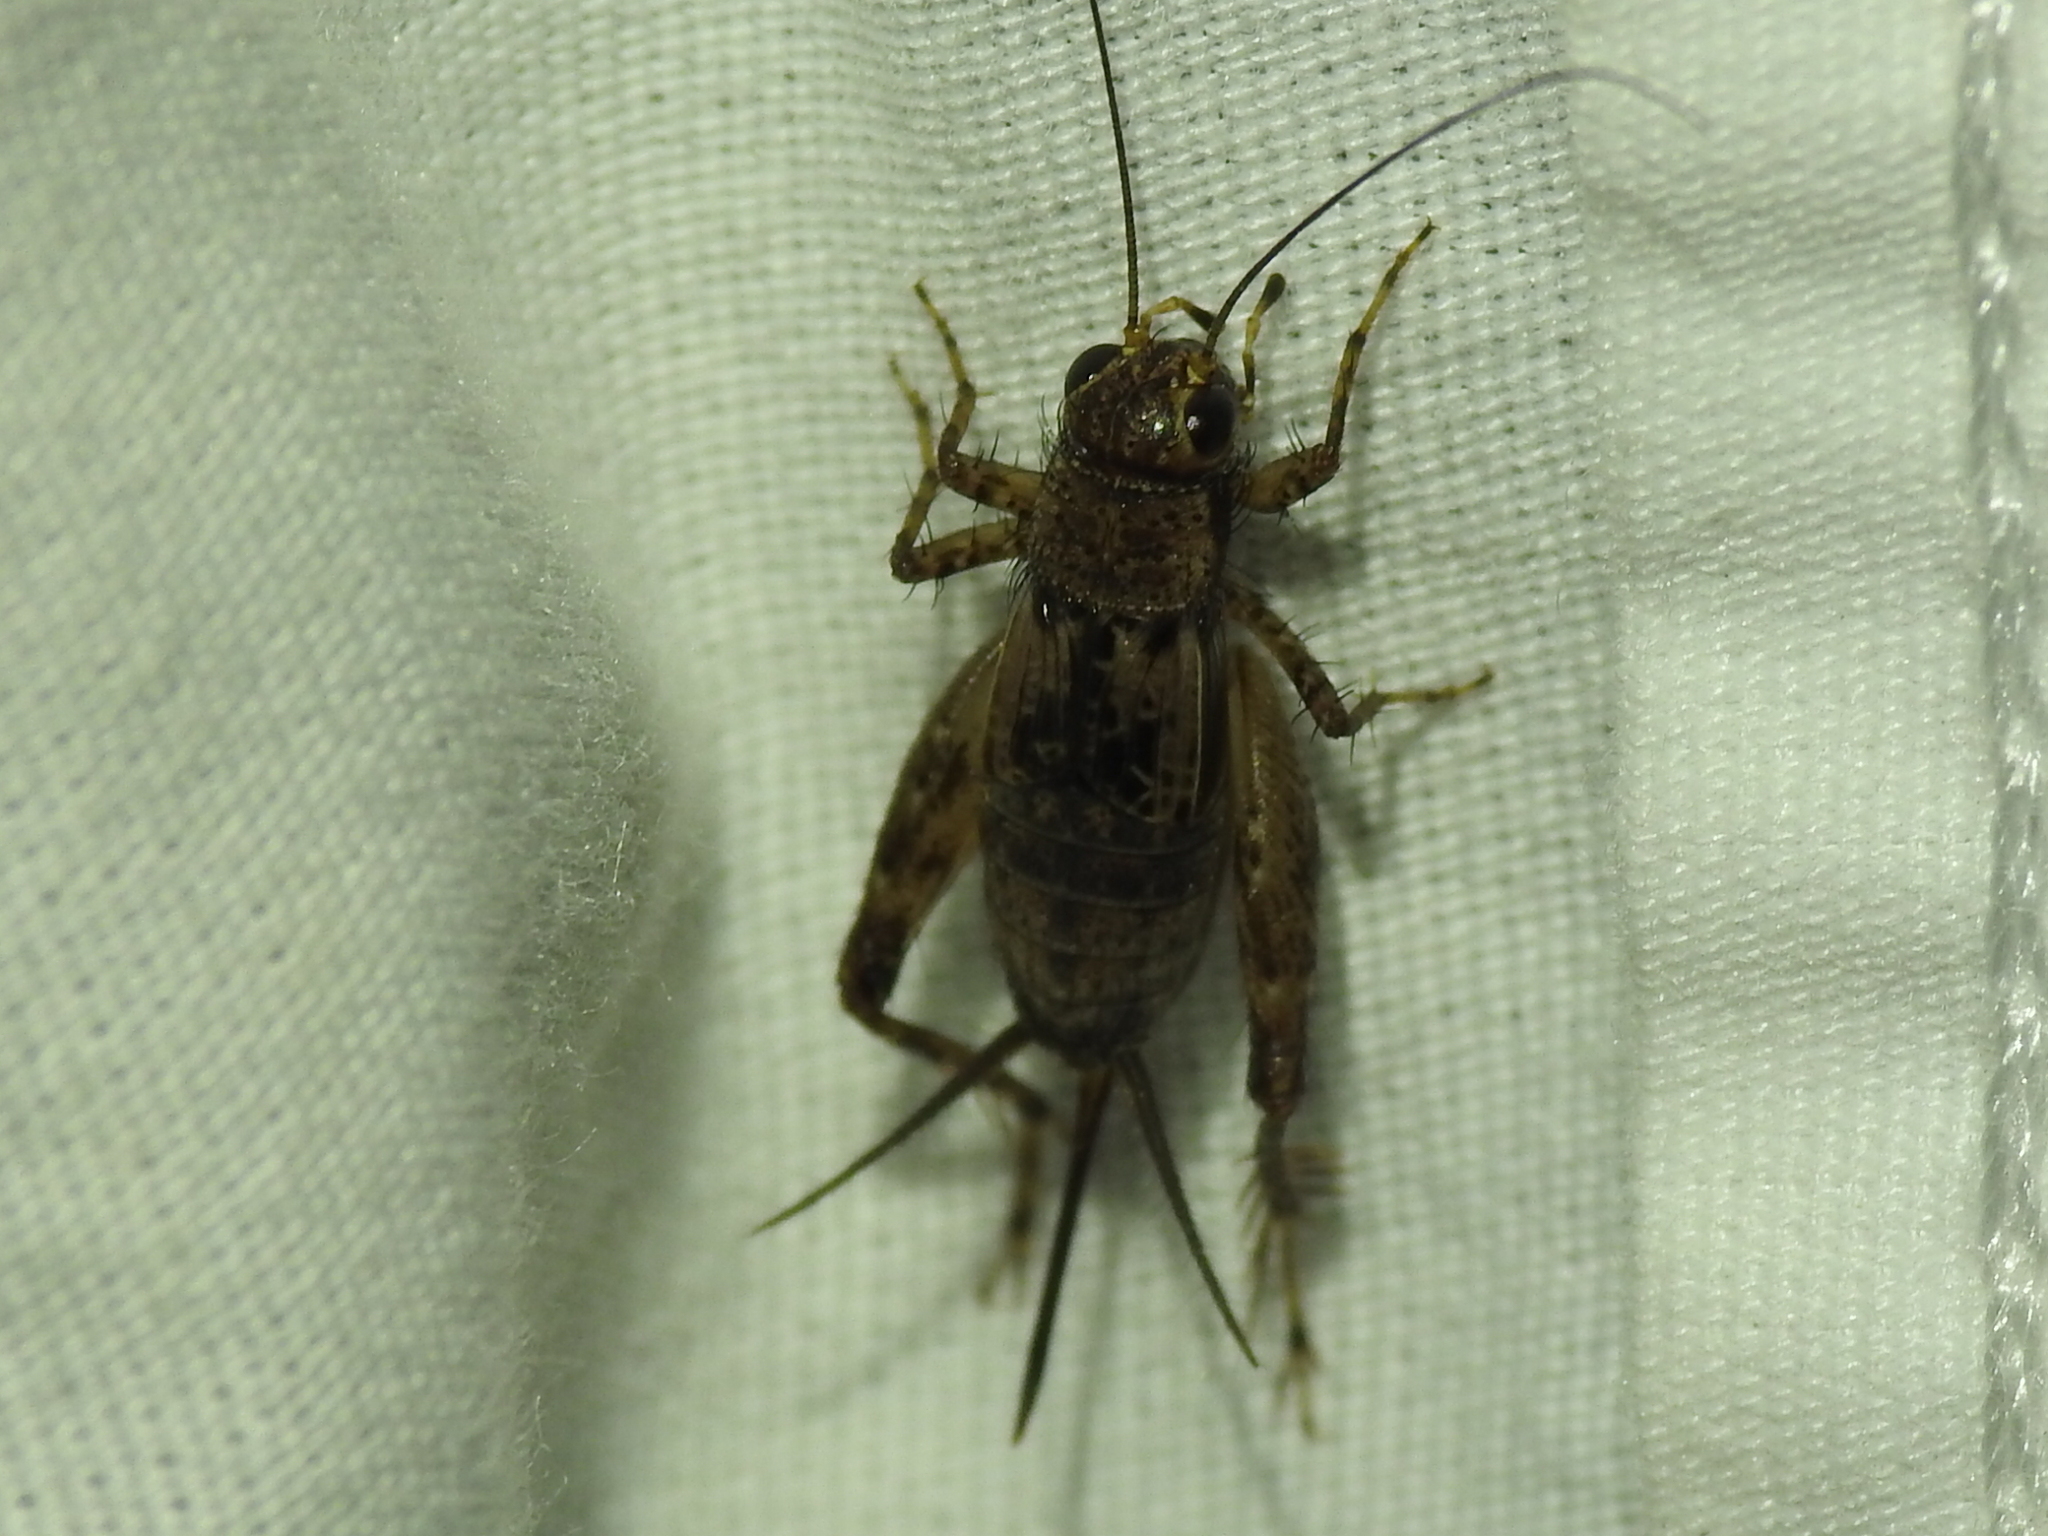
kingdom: Animalia
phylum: Arthropoda
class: Insecta
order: Orthoptera
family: Trigonidiidae
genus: Allonemobius
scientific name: Allonemobius maculatus
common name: Larger spotted ground cricket
